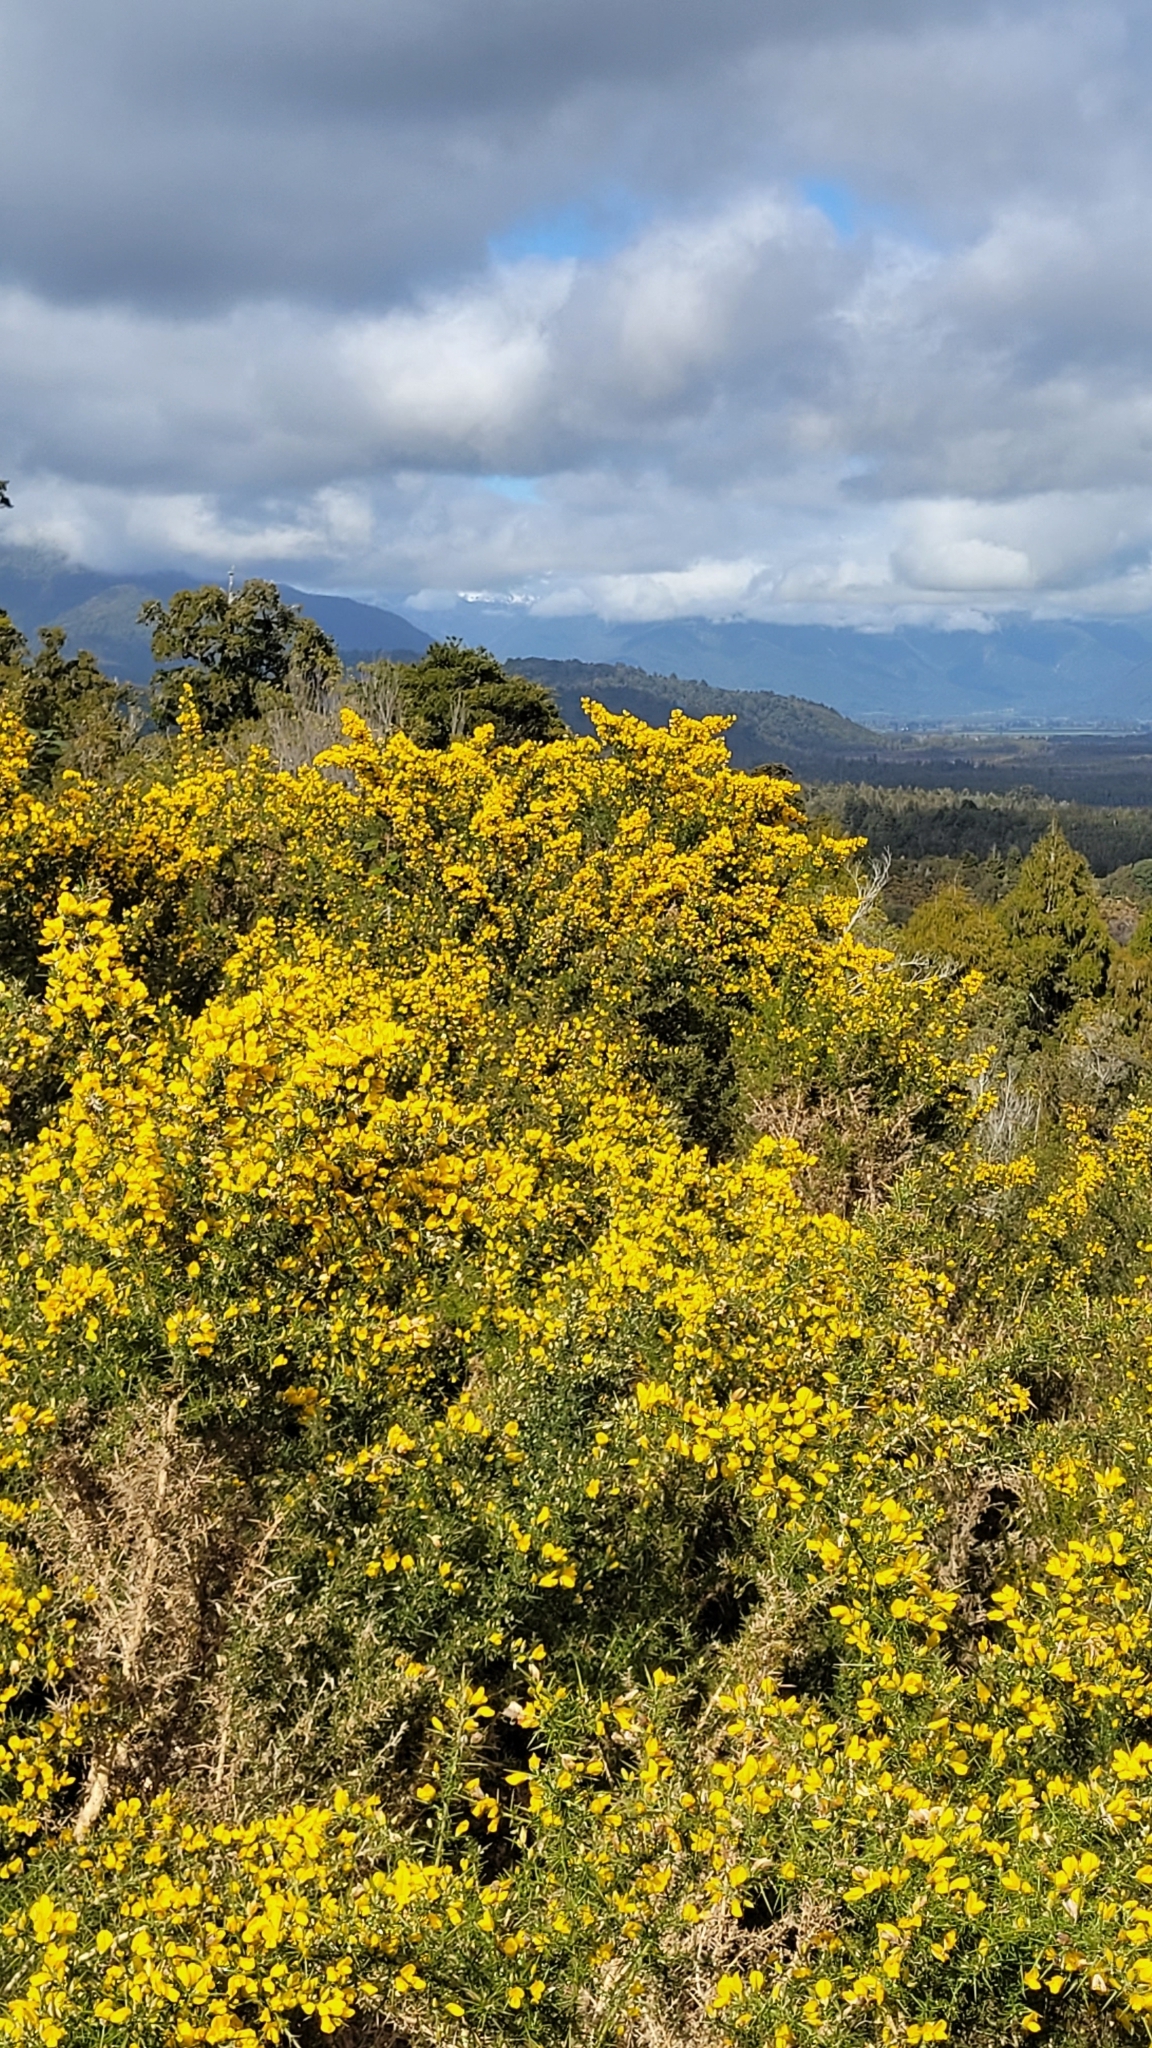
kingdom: Plantae
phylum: Tracheophyta
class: Magnoliopsida
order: Fabales
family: Fabaceae
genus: Ulex
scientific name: Ulex europaeus
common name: Common gorse
